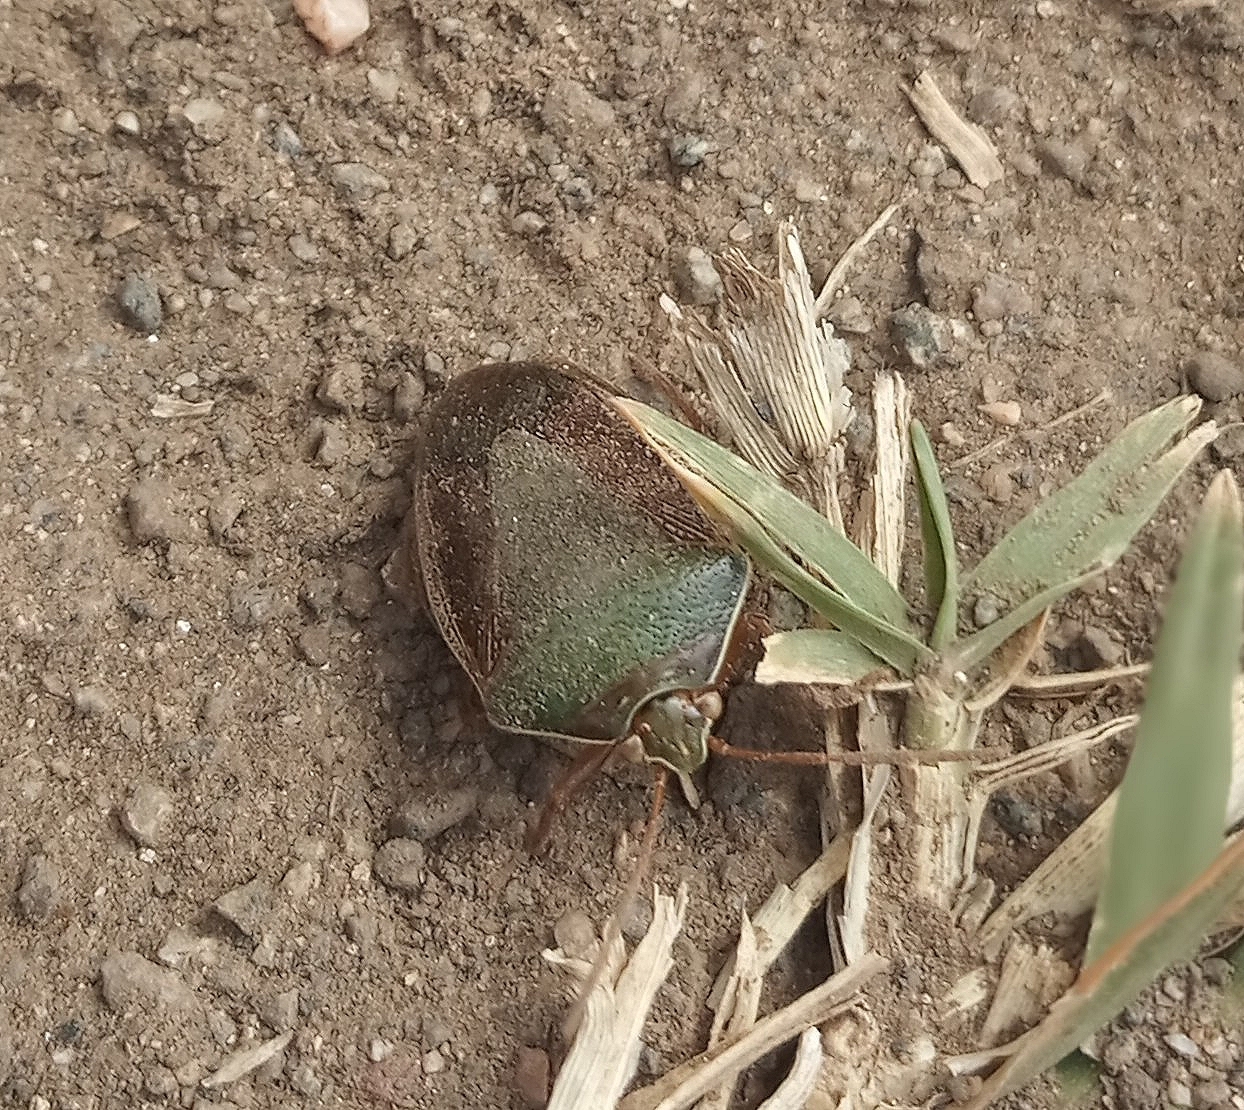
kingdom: Animalia
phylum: Arthropoda
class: Insecta
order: Hemiptera
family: Pentatomidae
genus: Edessa
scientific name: Edessa meditabunda
